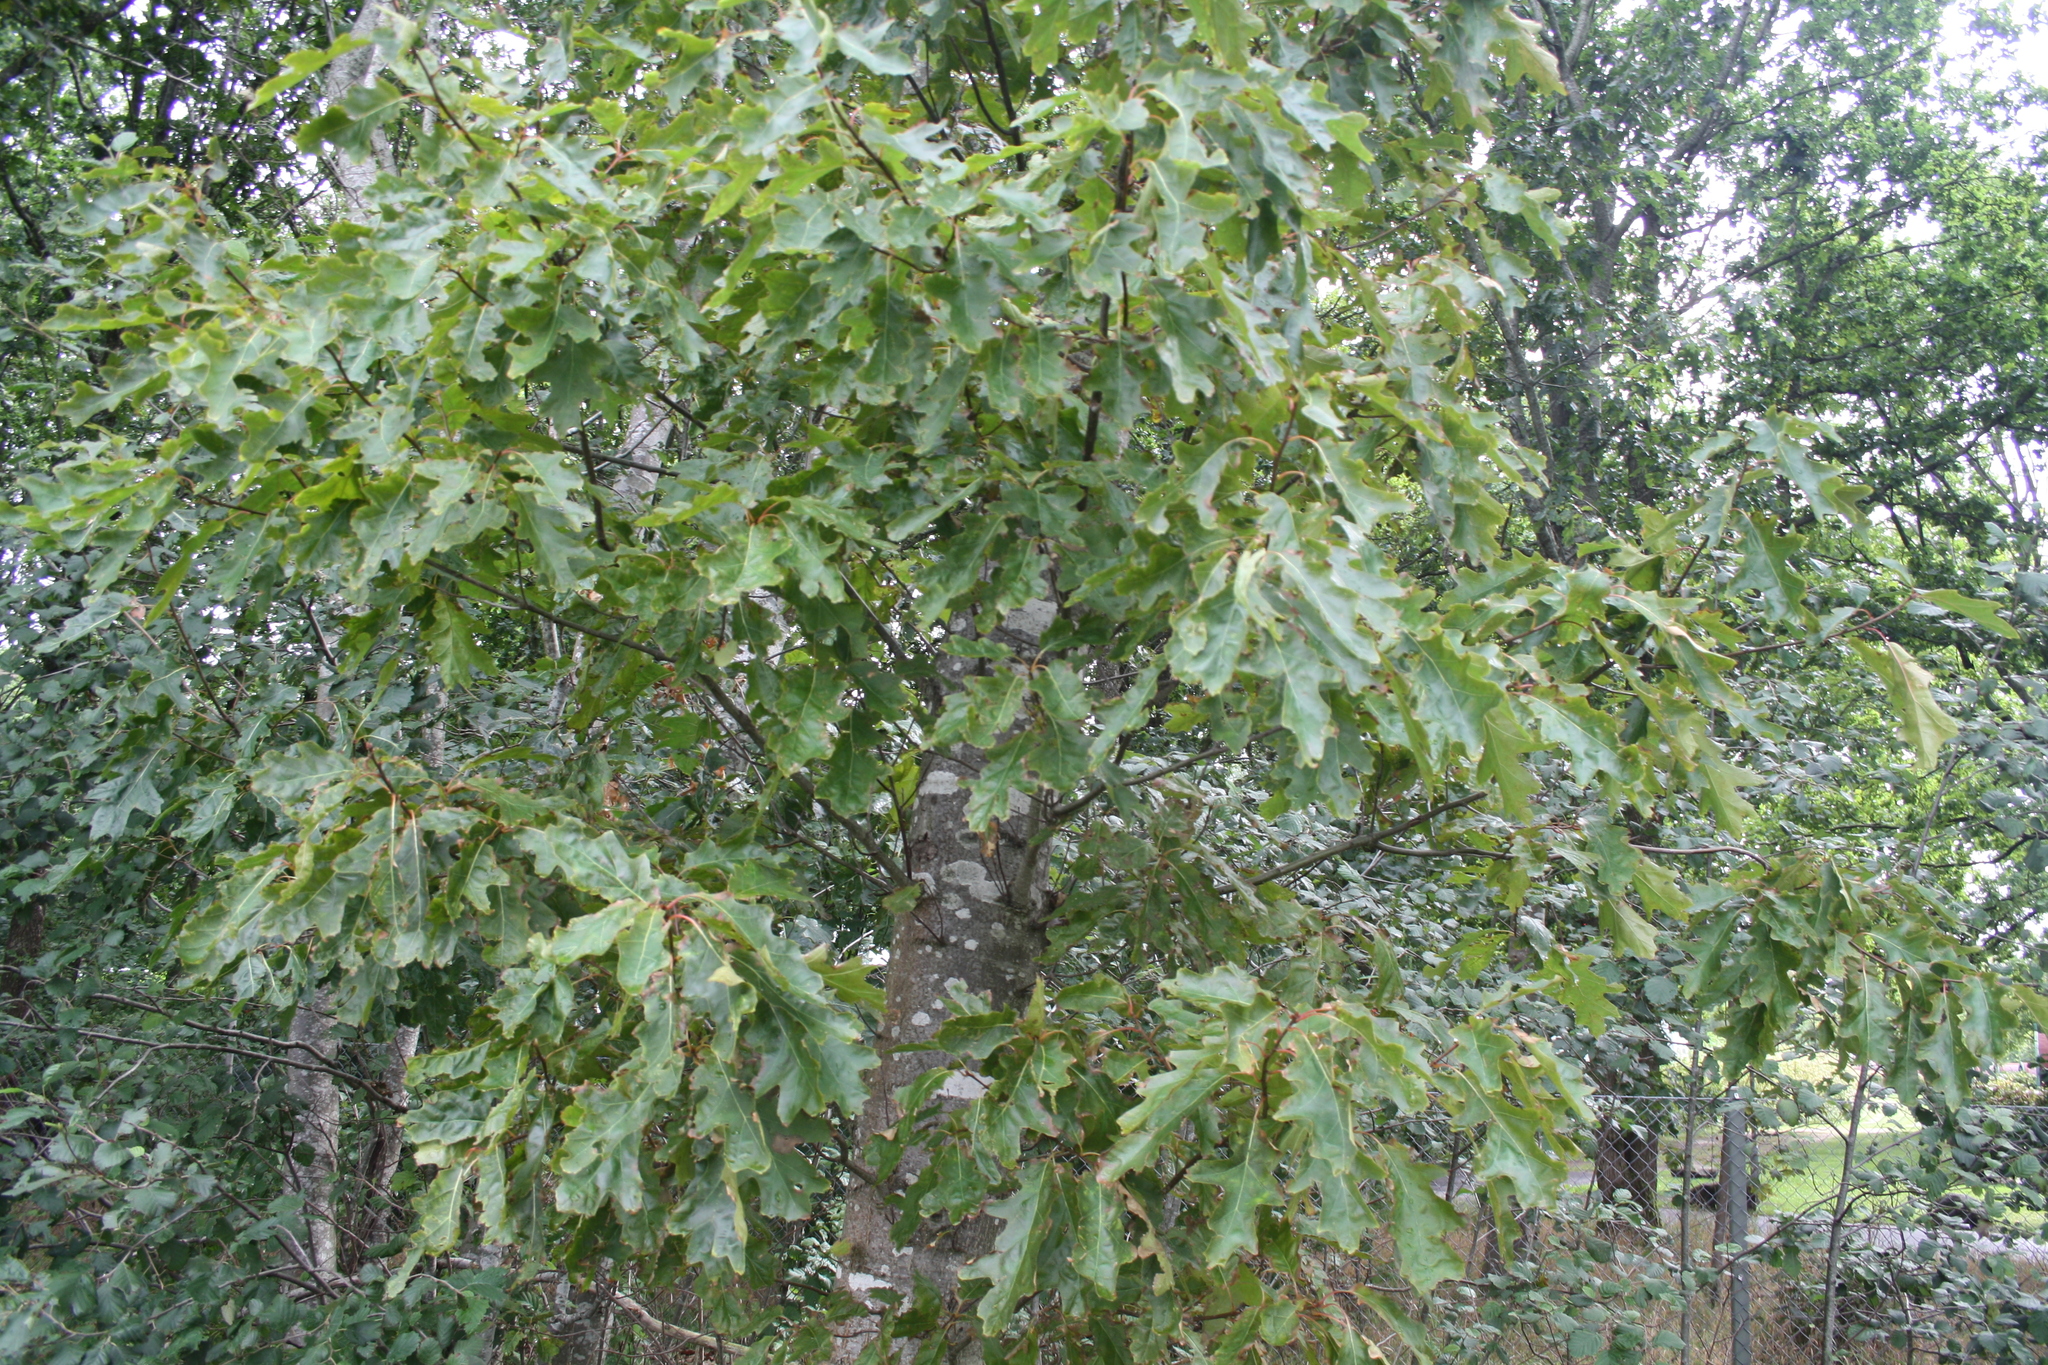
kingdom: Plantae
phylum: Tracheophyta
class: Magnoliopsida
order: Fagales
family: Fagaceae
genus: Quercus
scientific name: Quercus
